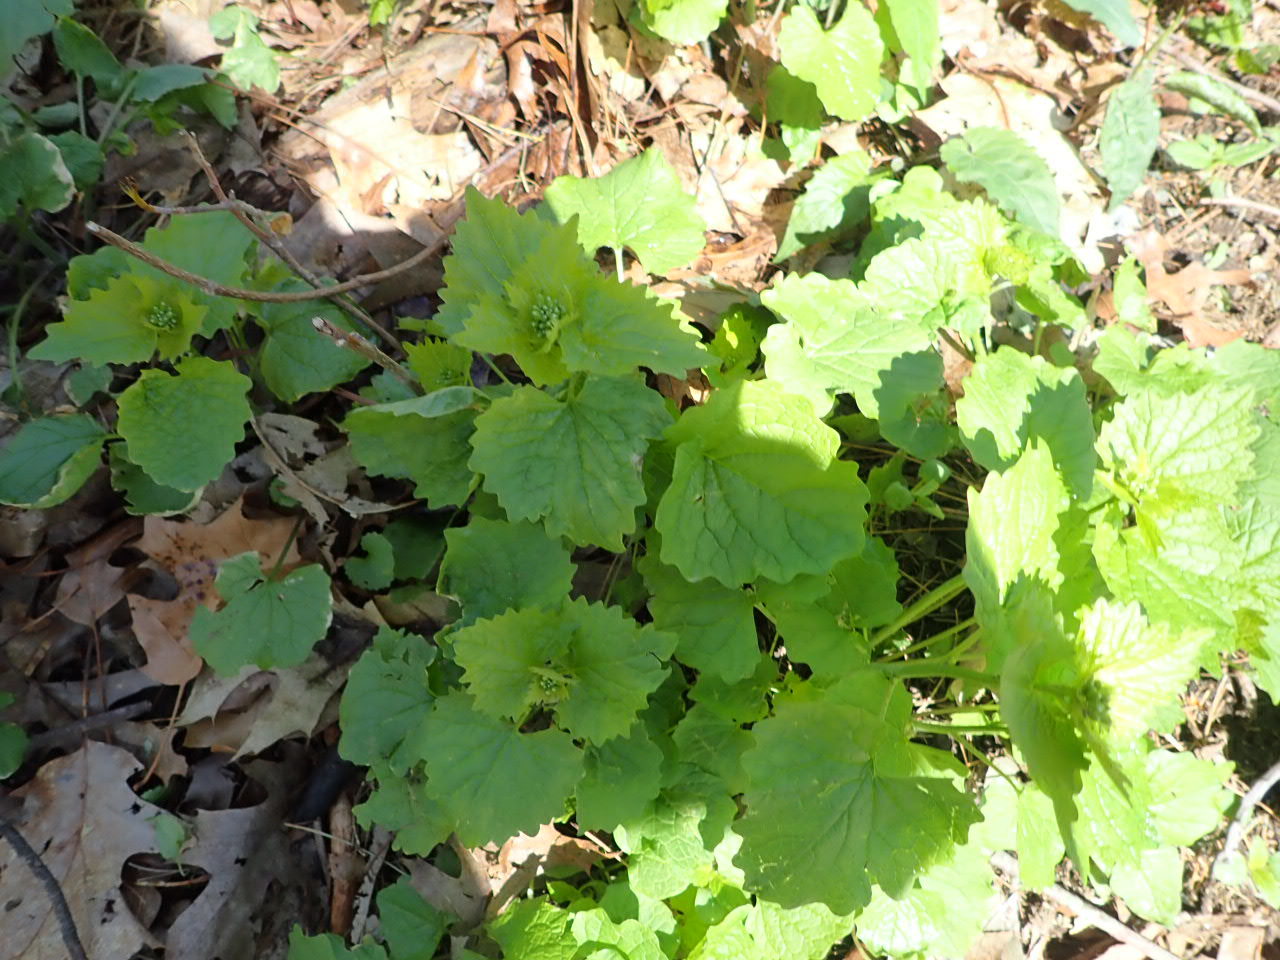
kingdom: Plantae
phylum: Tracheophyta
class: Magnoliopsida
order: Brassicales
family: Brassicaceae
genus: Alliaria
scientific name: Alliaria petiolata
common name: Garlic mustard
